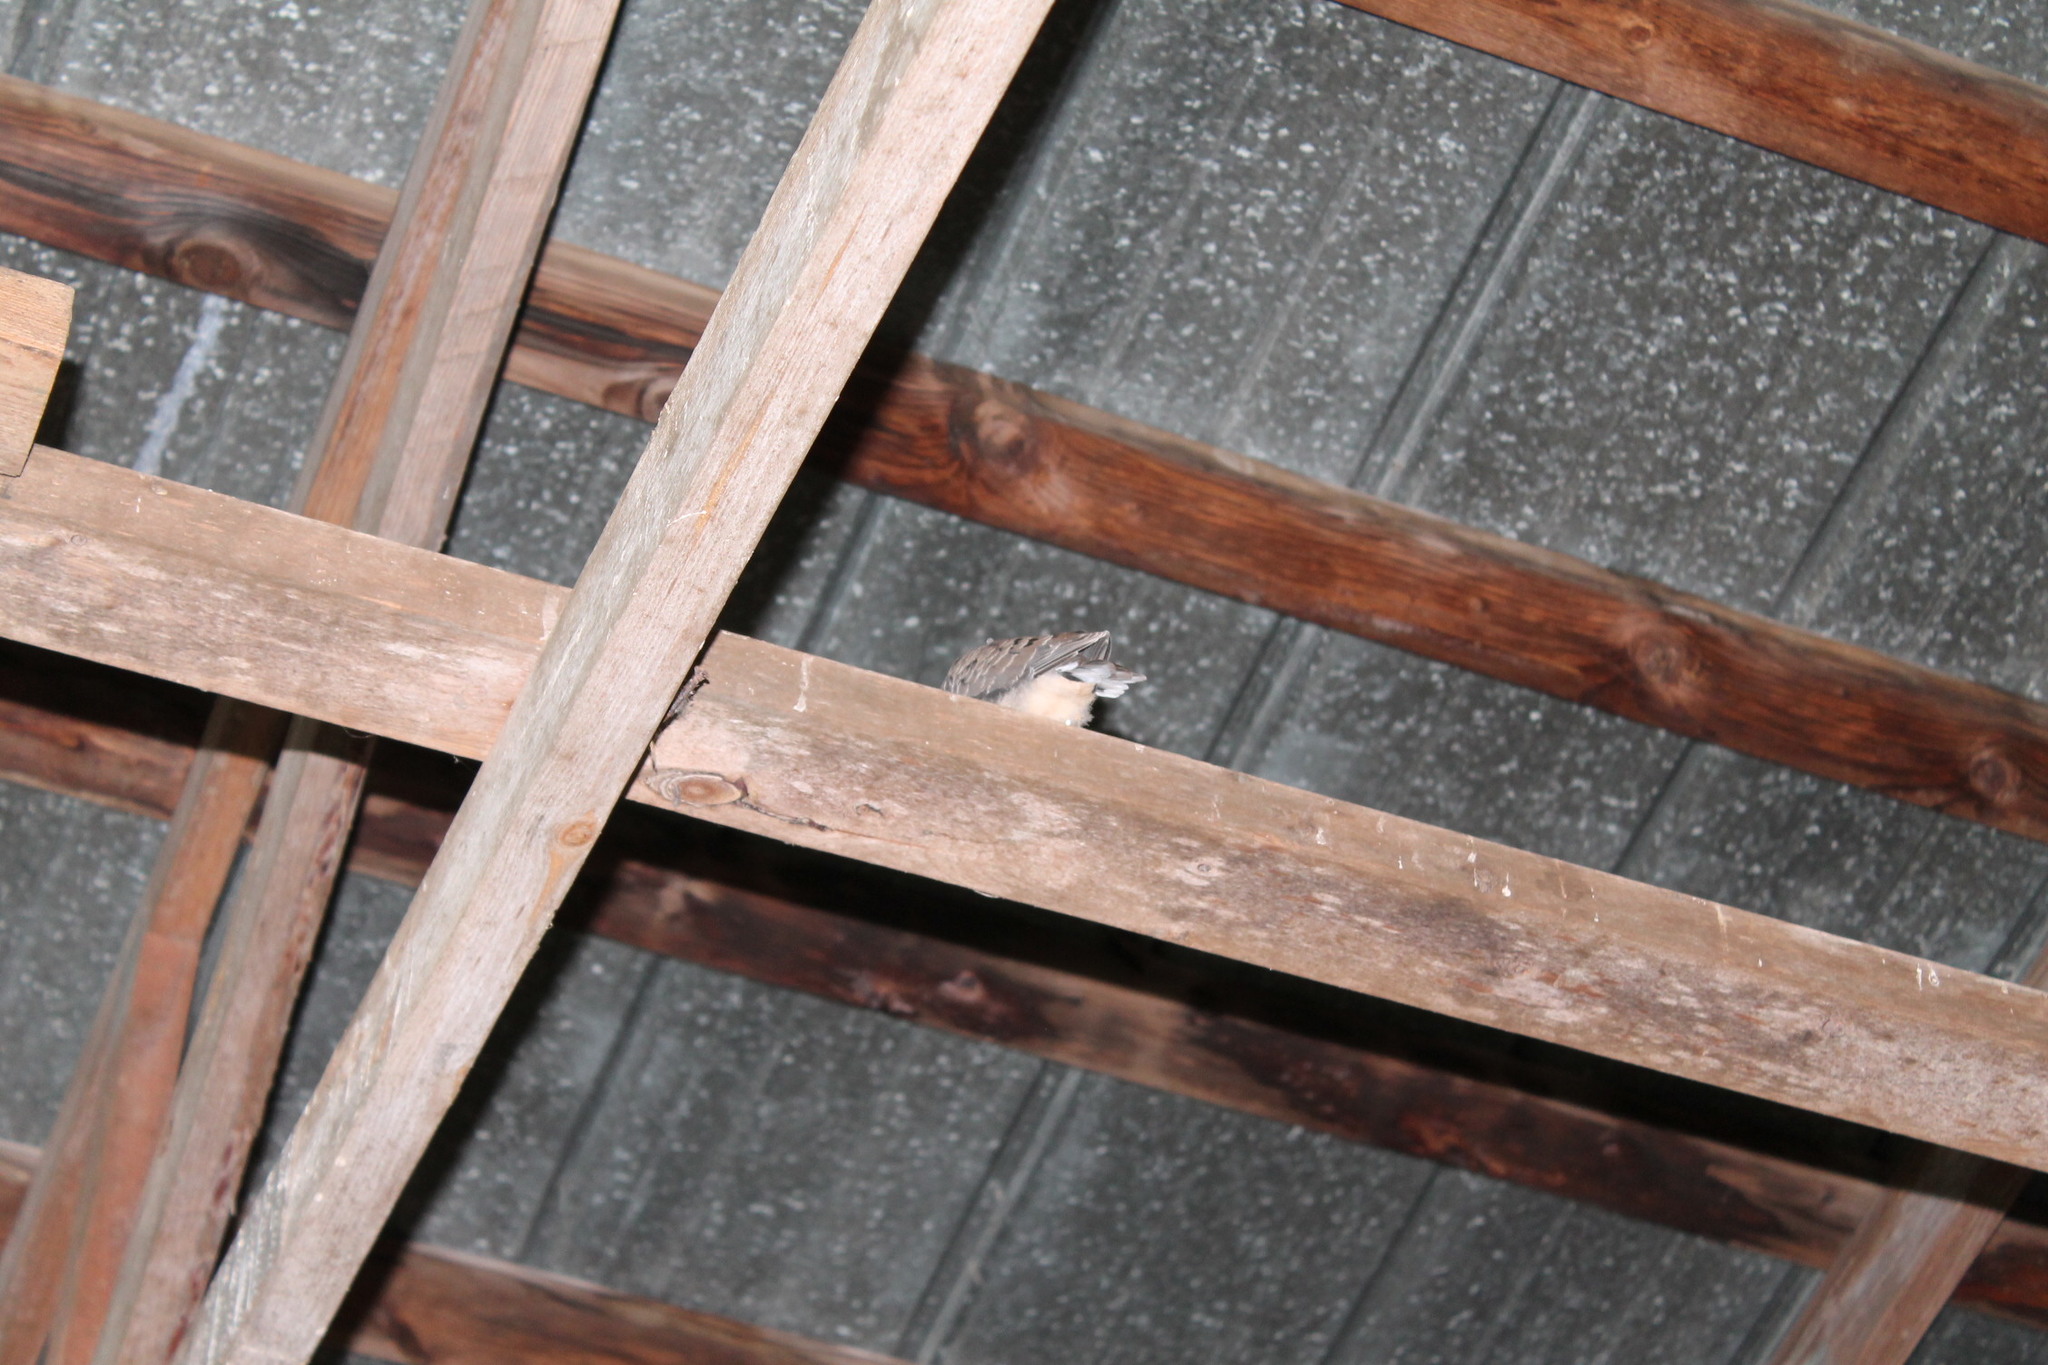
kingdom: Animalia
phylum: Chordata
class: Aves
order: Columbiformes
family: Columbidae
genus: Zenaida
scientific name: Zenaida macroura
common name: Mourning dove
